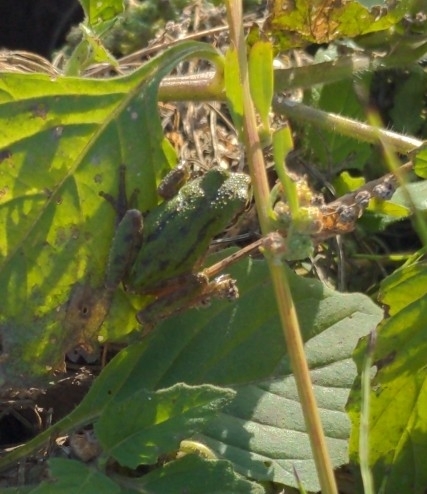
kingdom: Animalia
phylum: Chordata
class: Amphibia
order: Anura
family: Hylidae
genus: Pseudacris
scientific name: Pseudacris regilla
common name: Pacific chorus frog
